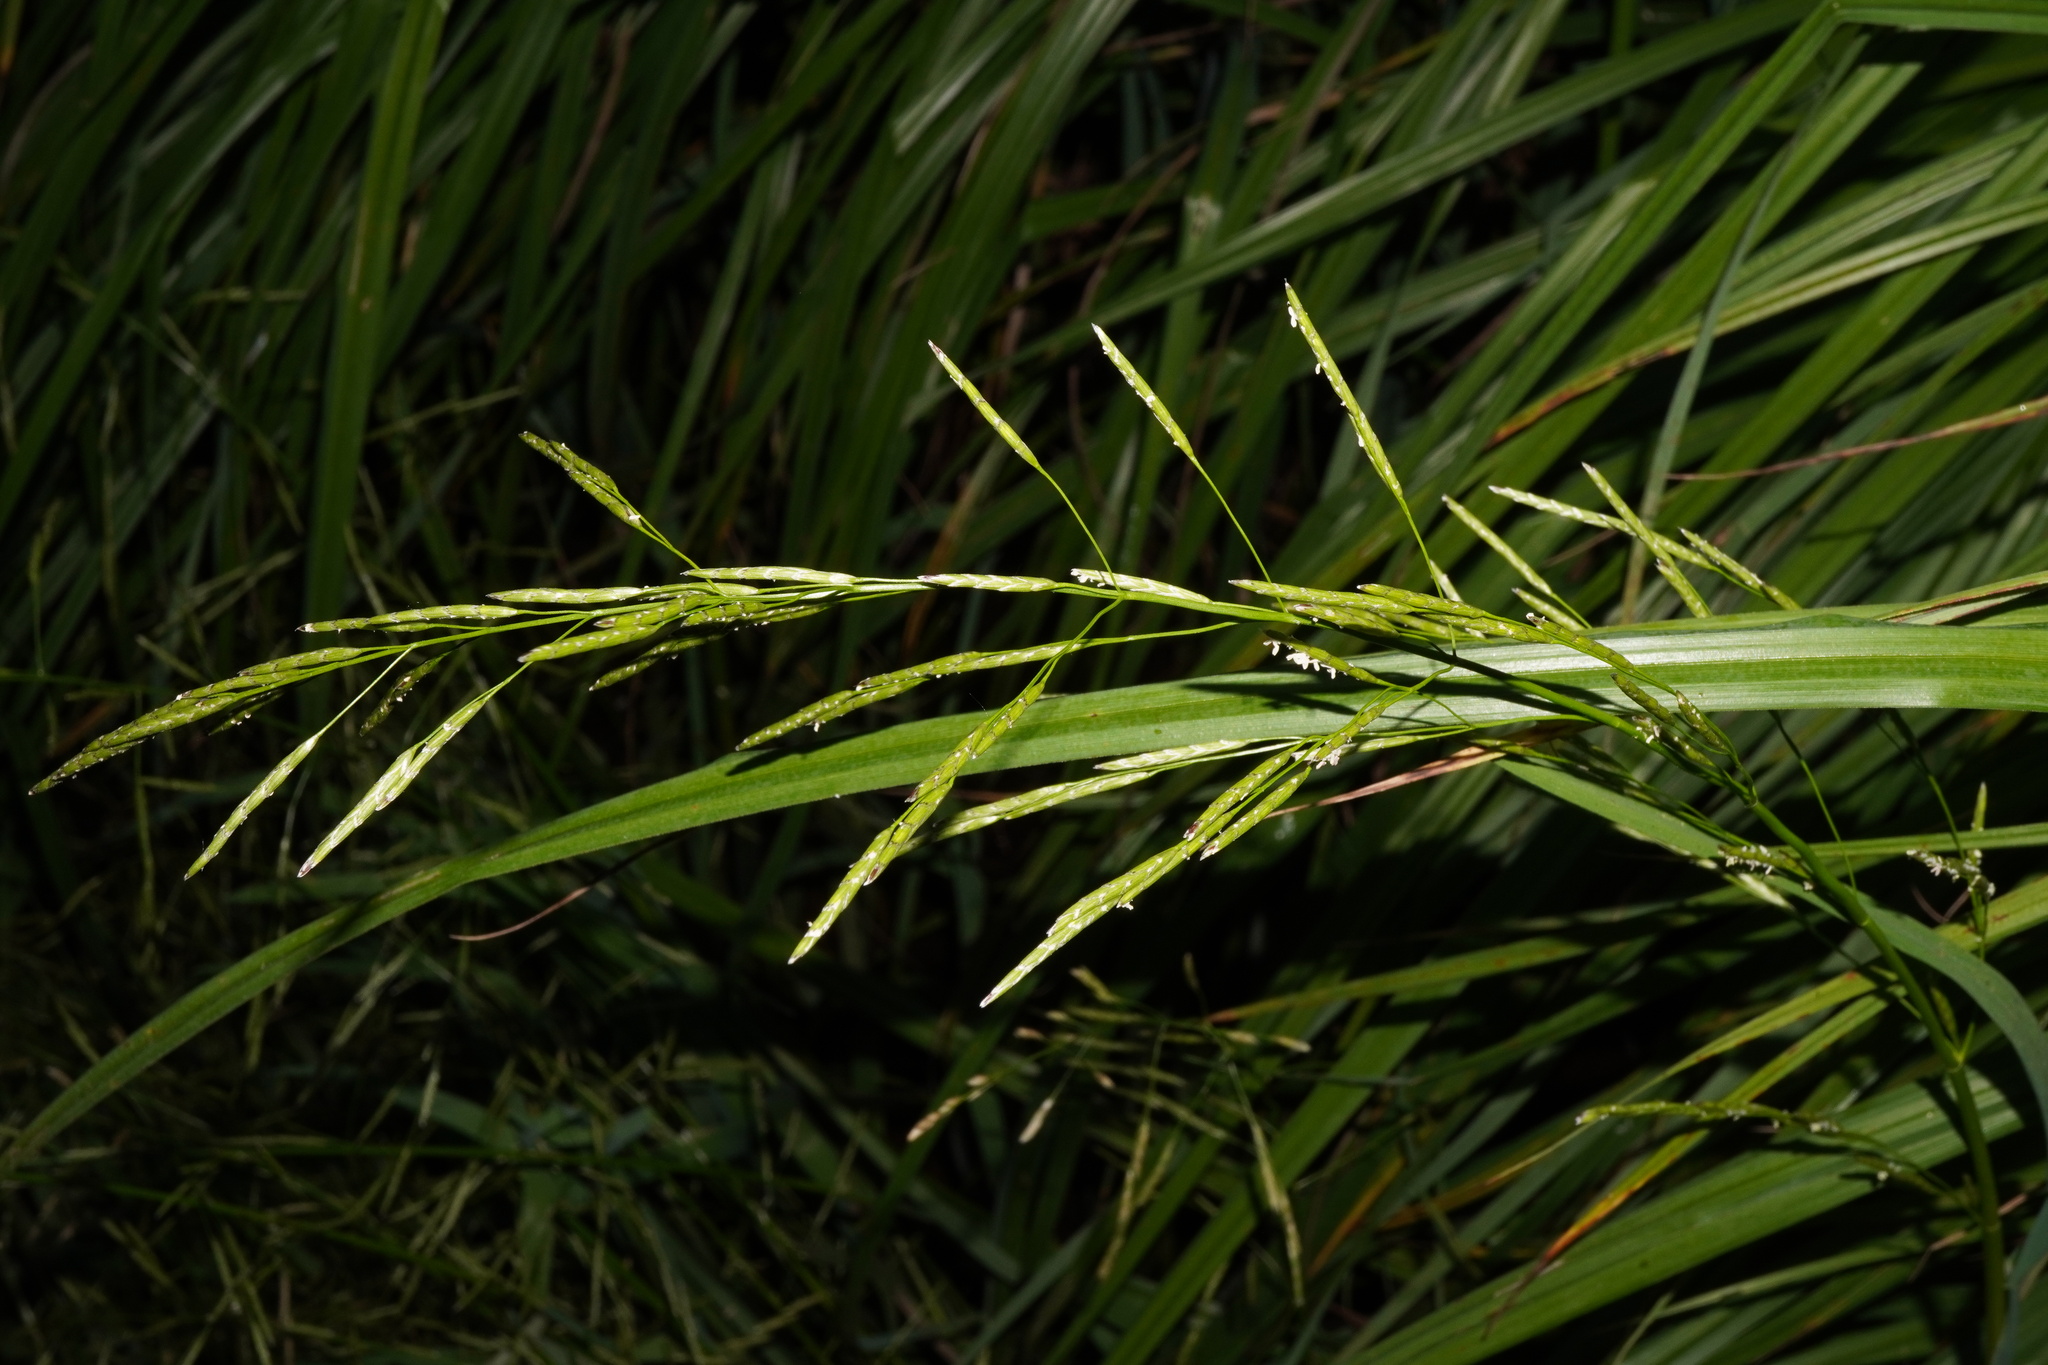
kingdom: Plantae
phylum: Tracheophyta
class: Liliopsida
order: Poales
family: Poaceae
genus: Glyceria
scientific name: Glyceria notata
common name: Plicate sweet-grass
